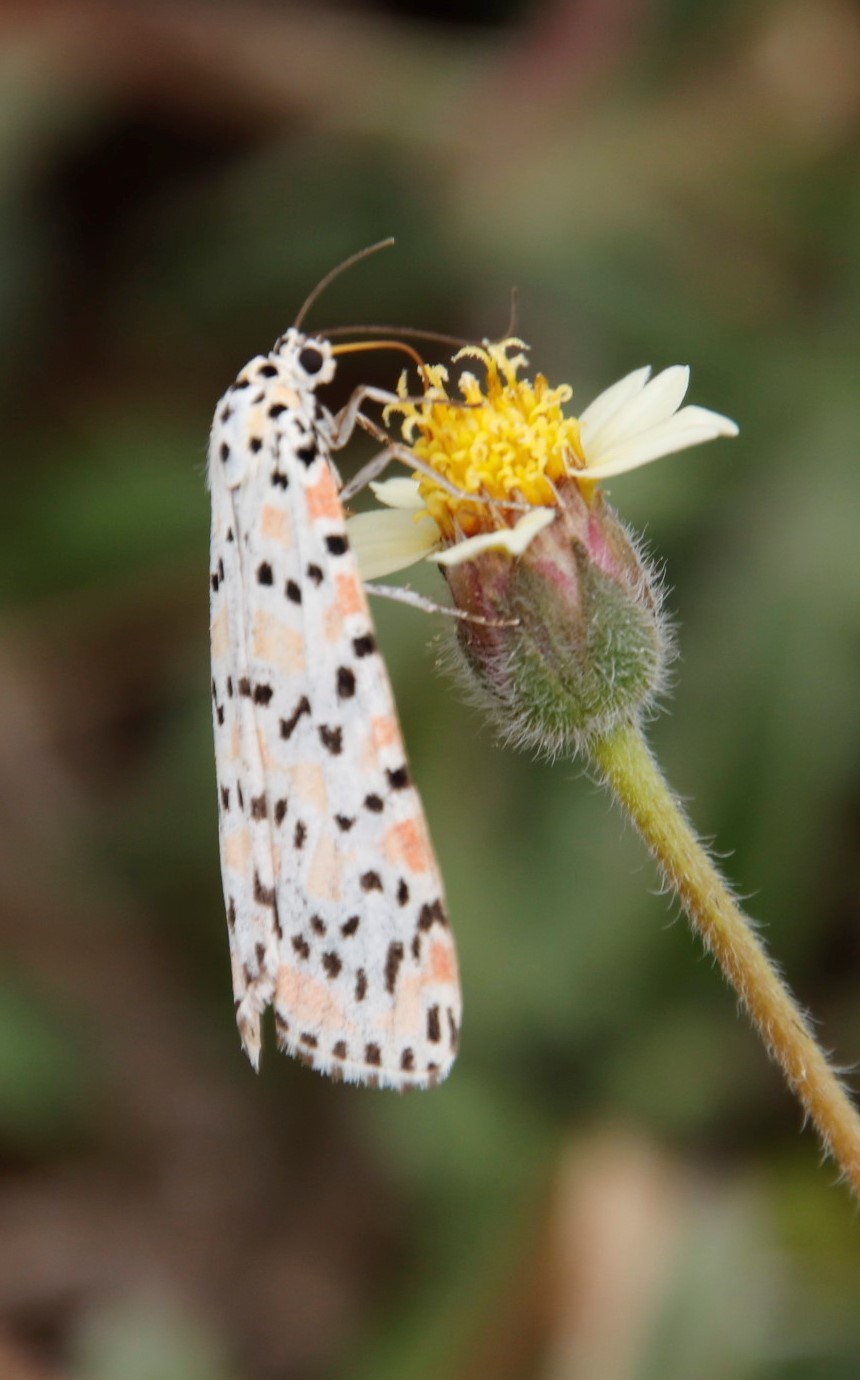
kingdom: Animalia
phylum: Arthropoda
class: Insecta
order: Lepidoptera
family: Erebidae
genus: Utetheisa
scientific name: Utetheisa pulchella
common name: Crimson speckled
